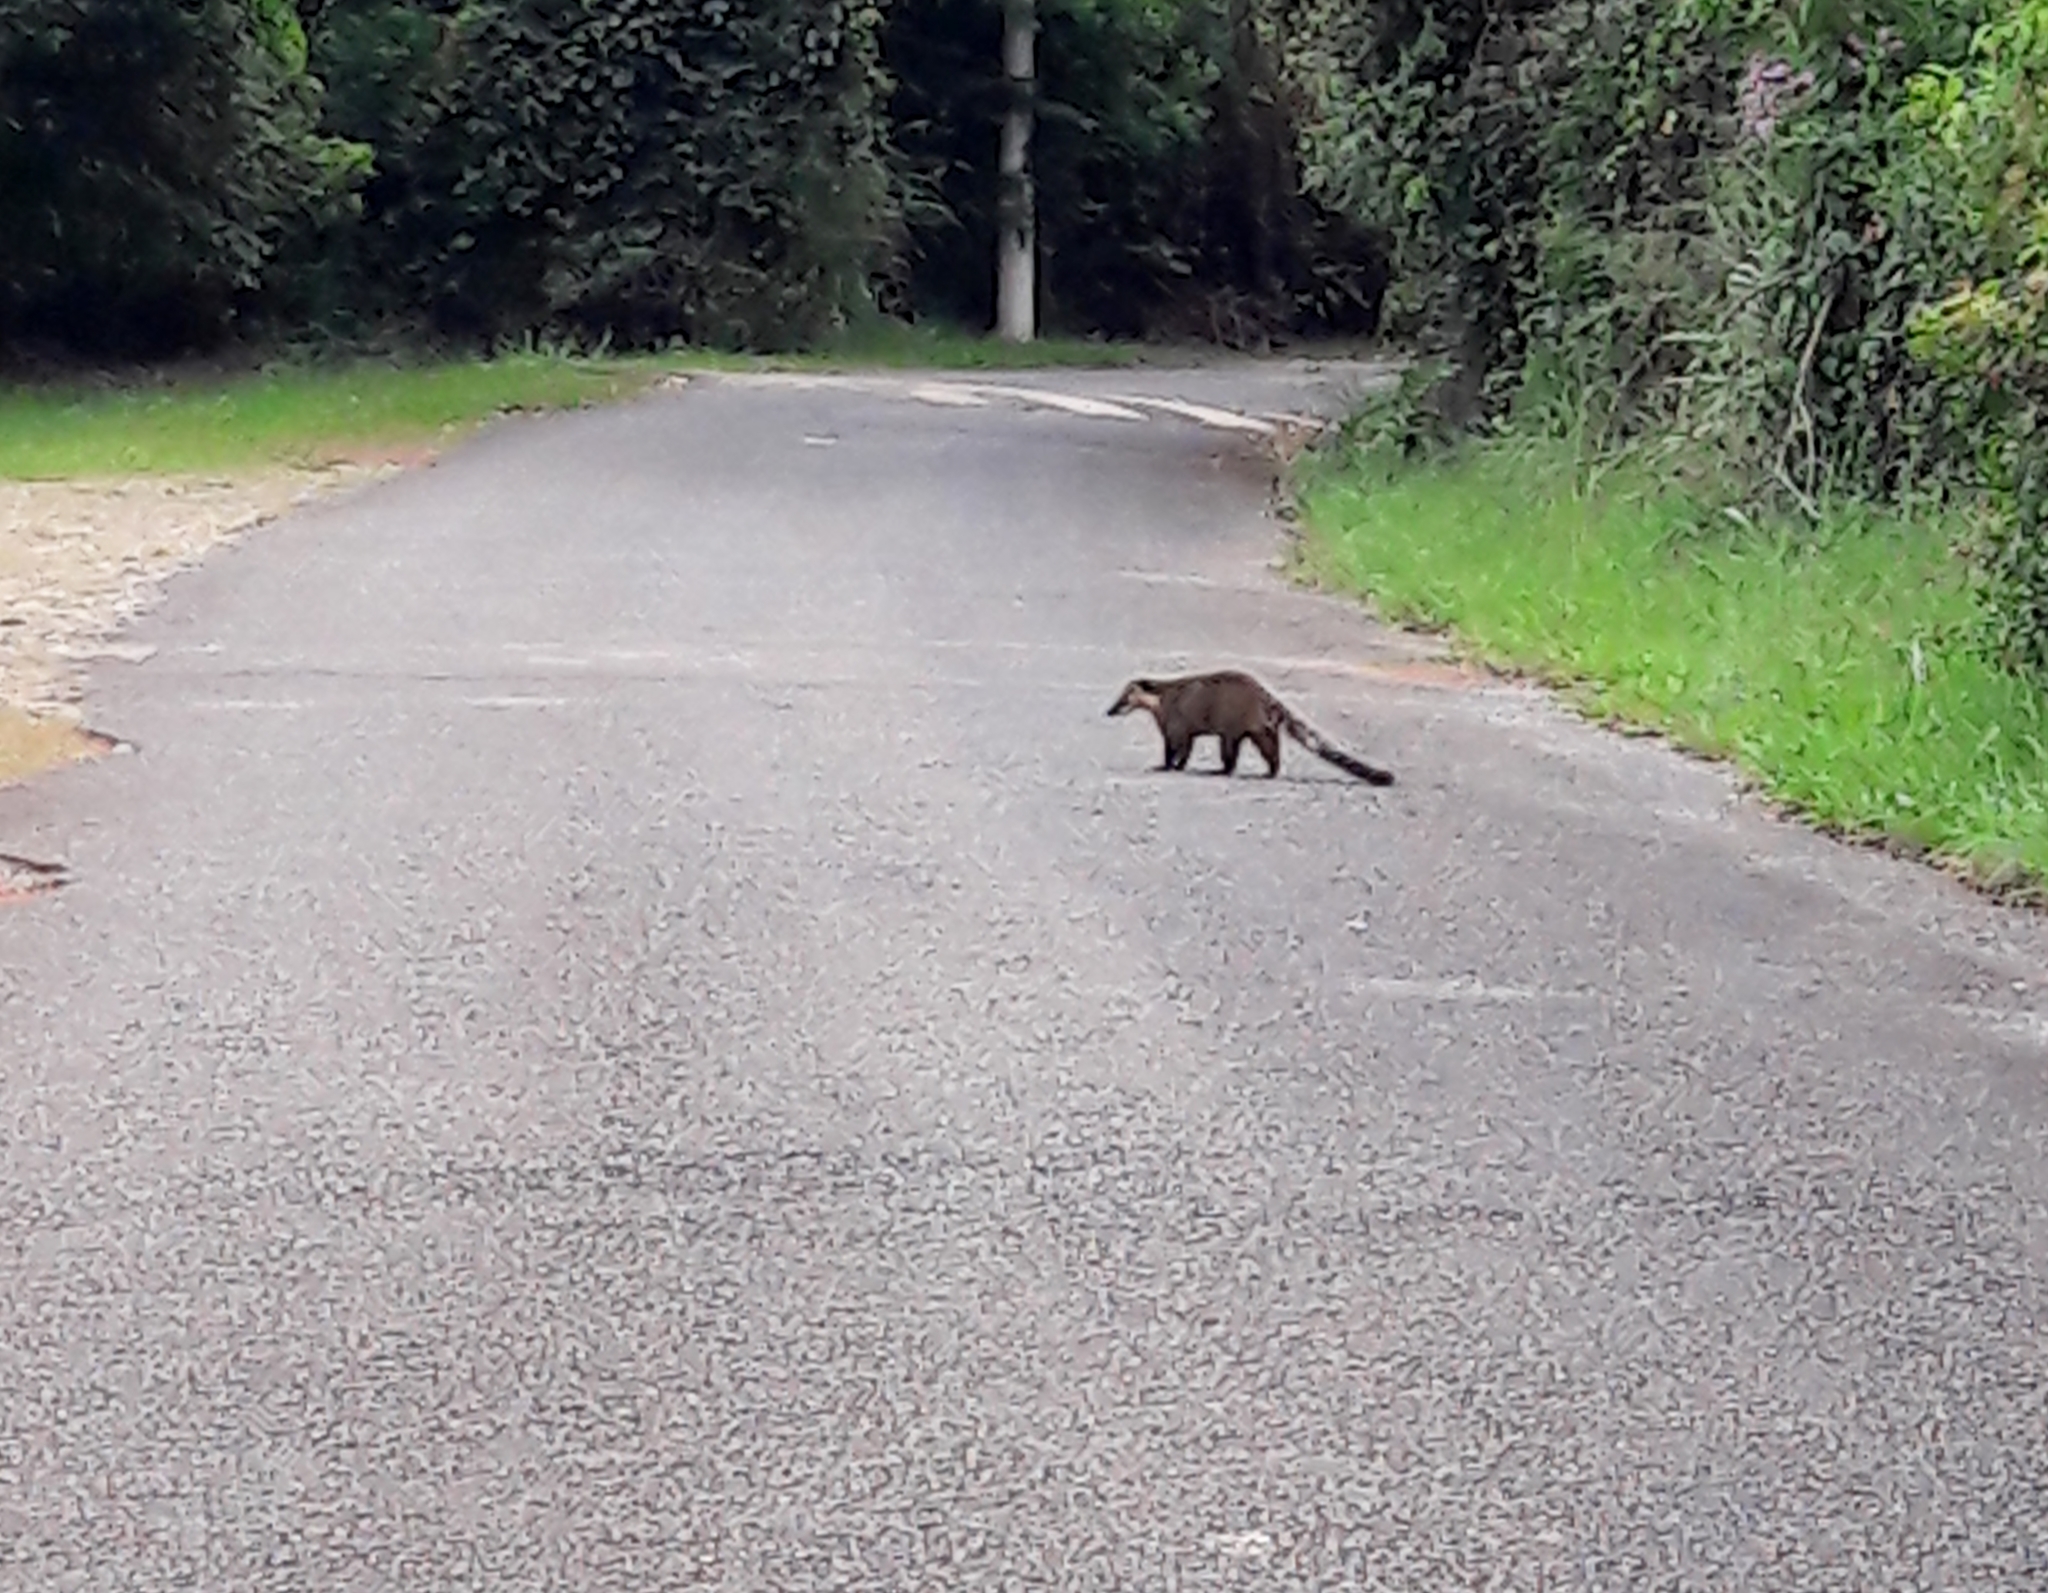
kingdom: Animalia
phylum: Chordata
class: Mammalia
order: Carnivora
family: Procyonidae
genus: Nasua
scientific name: Nasua nasua
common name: South american coati
